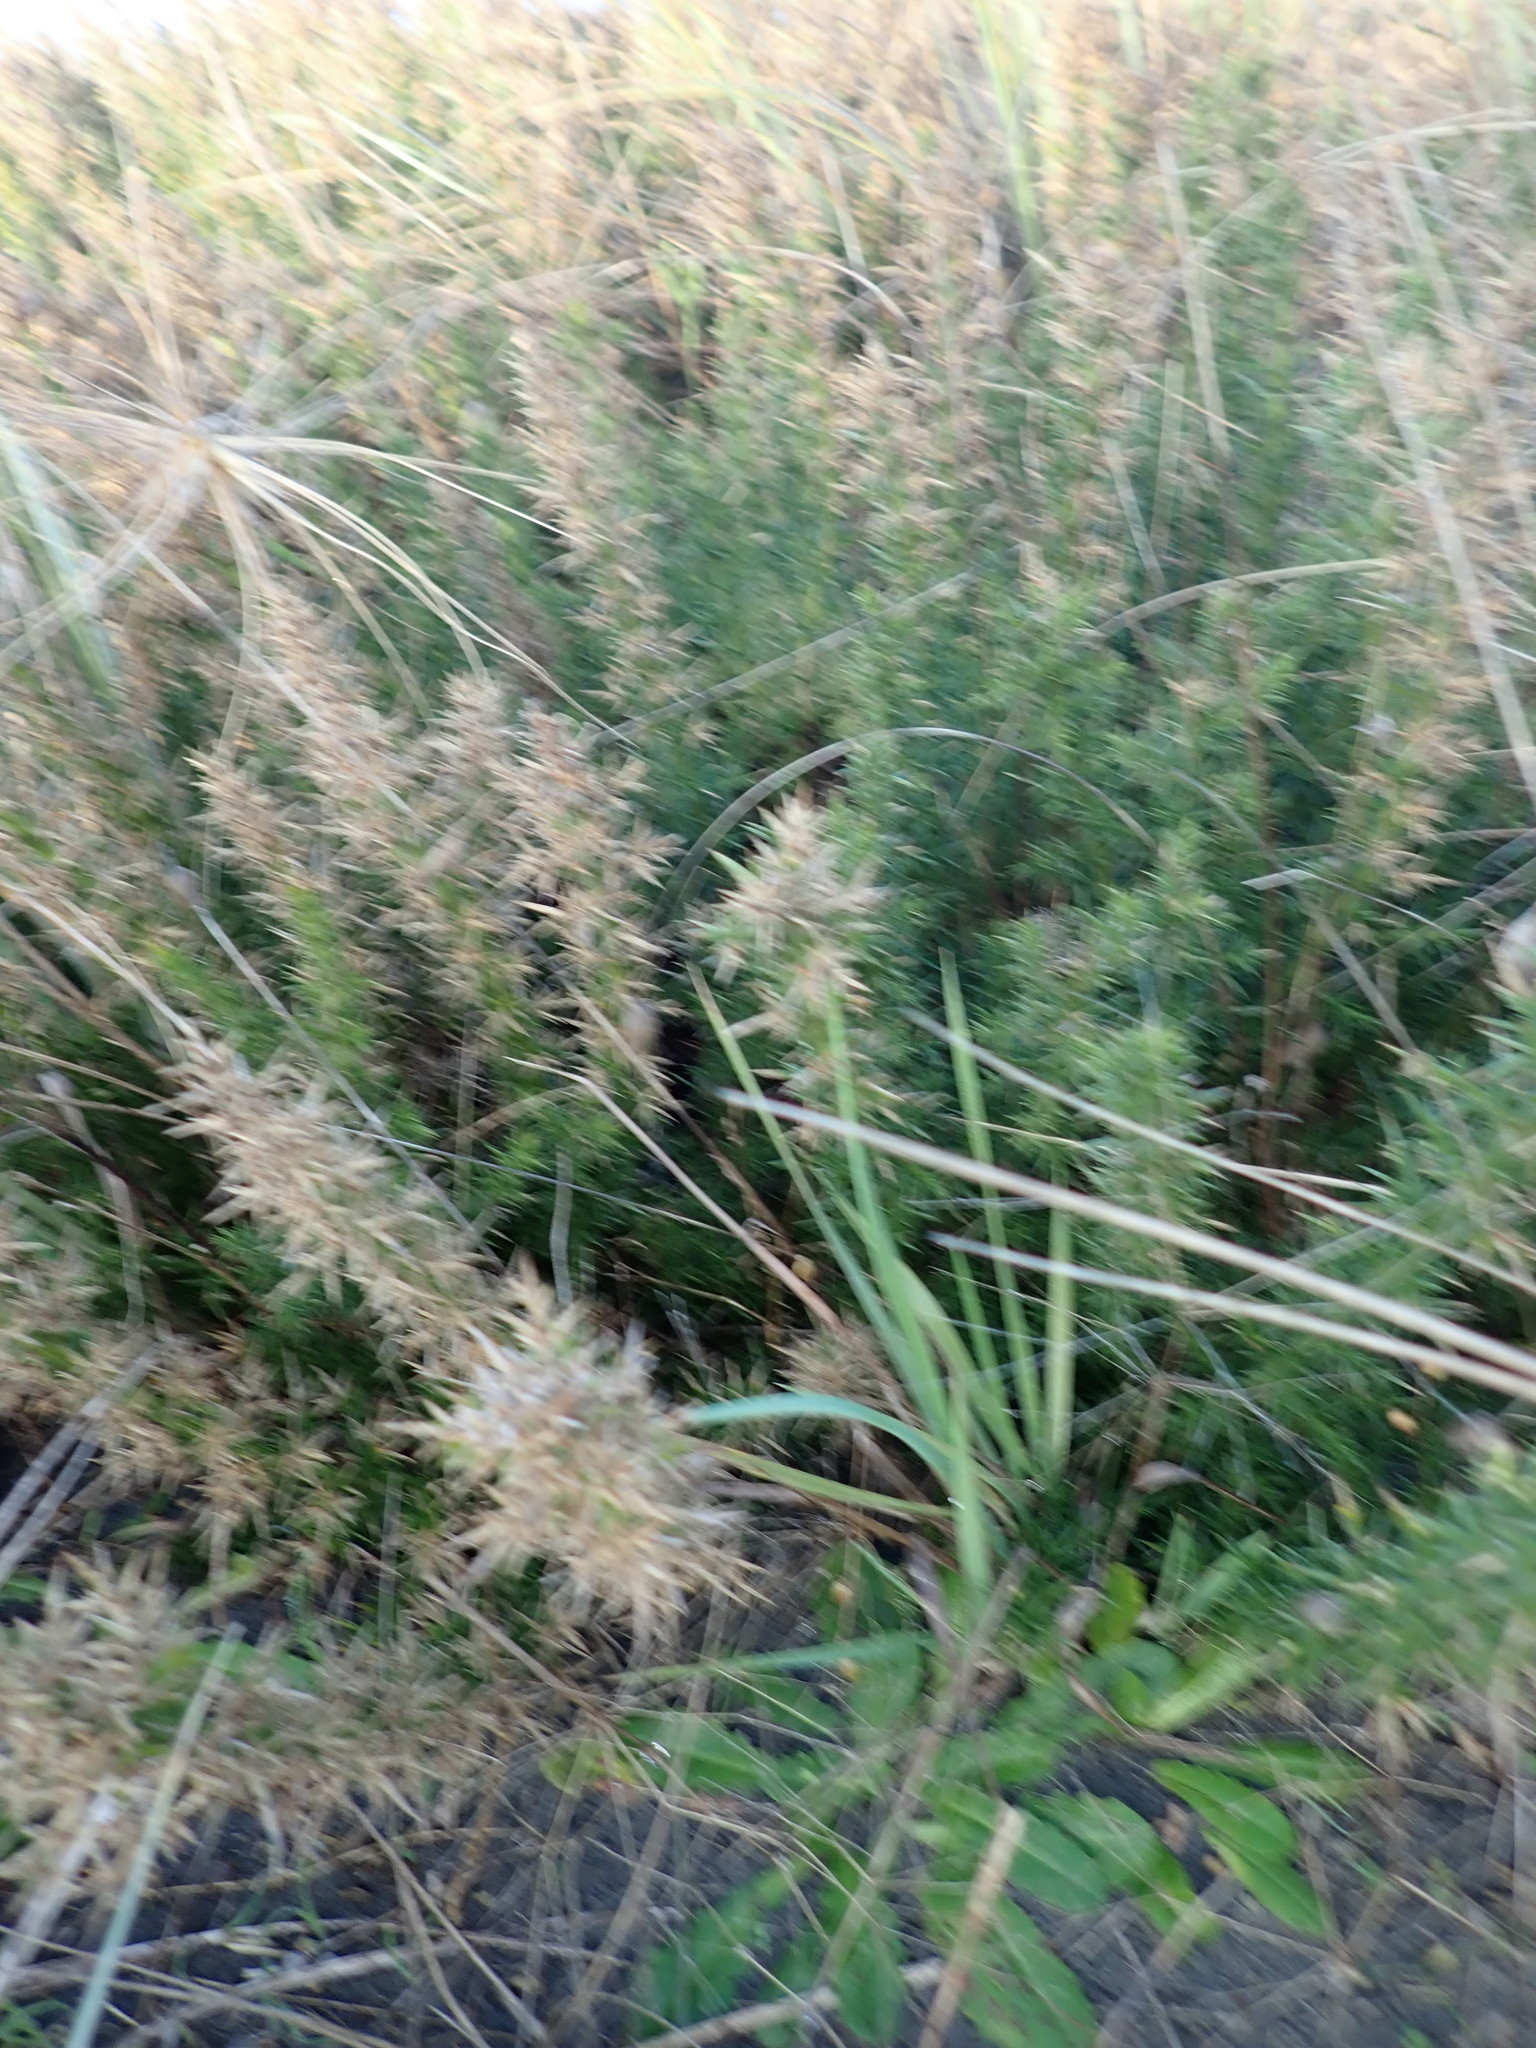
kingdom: Plantae
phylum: Tracheophyta
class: Magnoliopsida
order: Fabales
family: Fabaceae
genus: Ulex
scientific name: Ulex europaeus
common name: Common gorse
